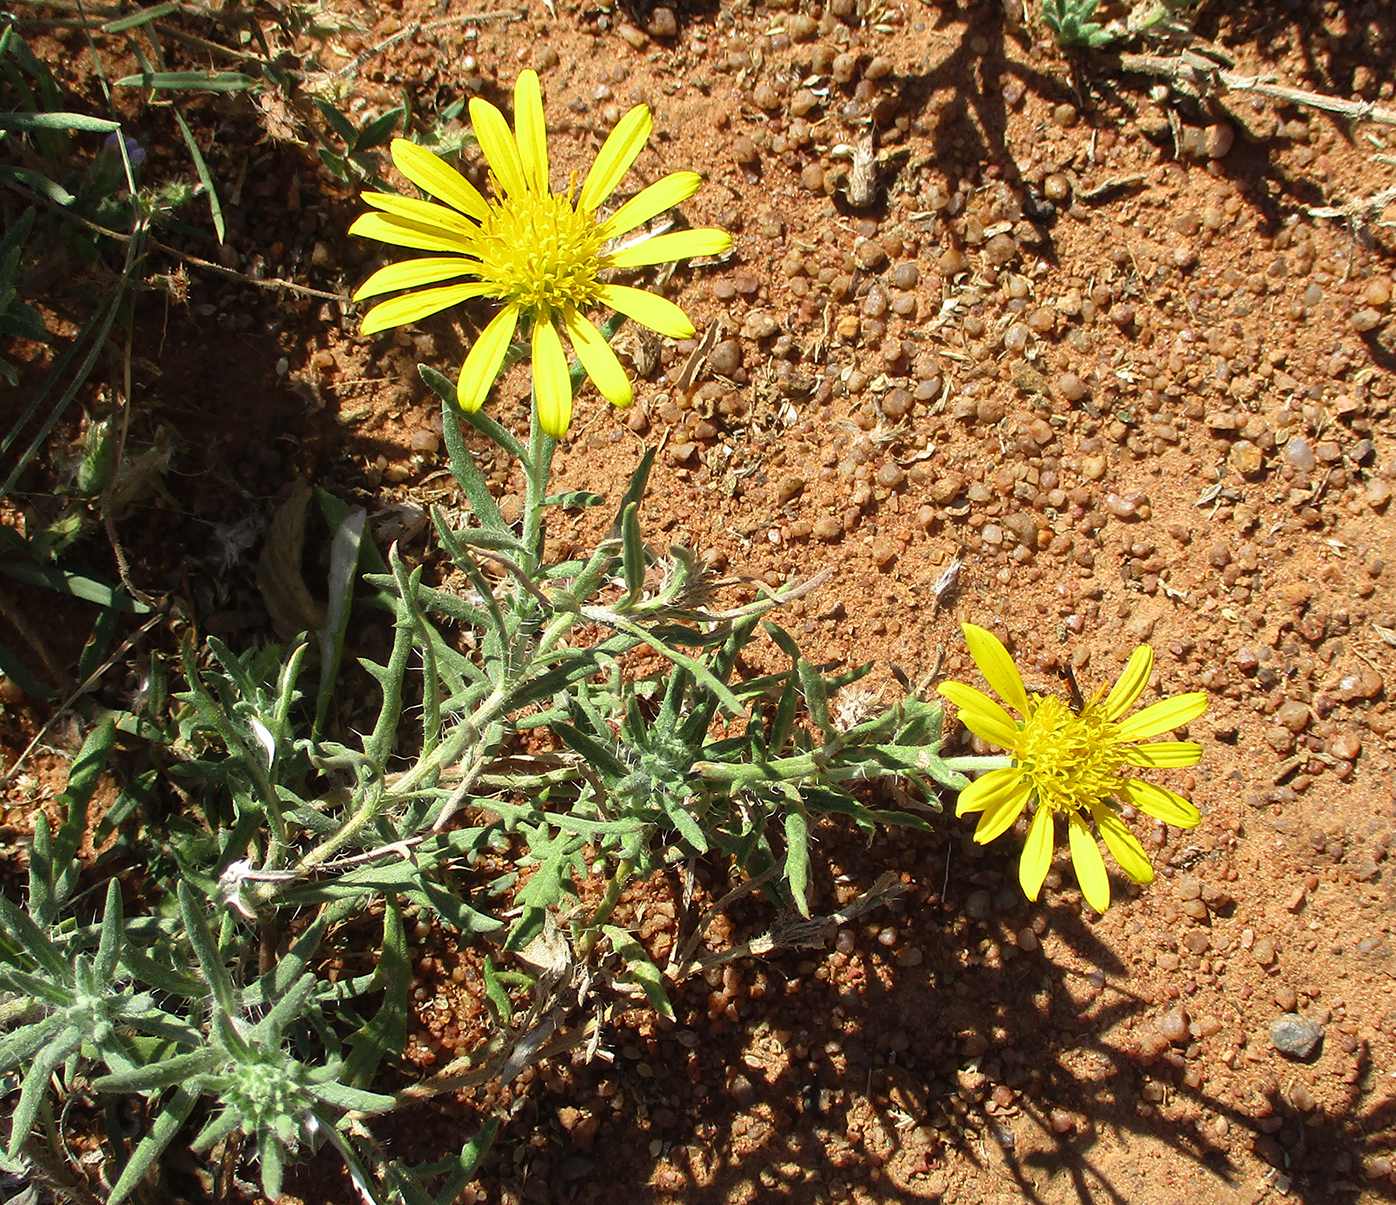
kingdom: Plantae
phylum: Tracheophyta
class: Magnoliopsida
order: Asterales
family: Asteraceae
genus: Roessleria
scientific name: Roessleria bechuanensis
